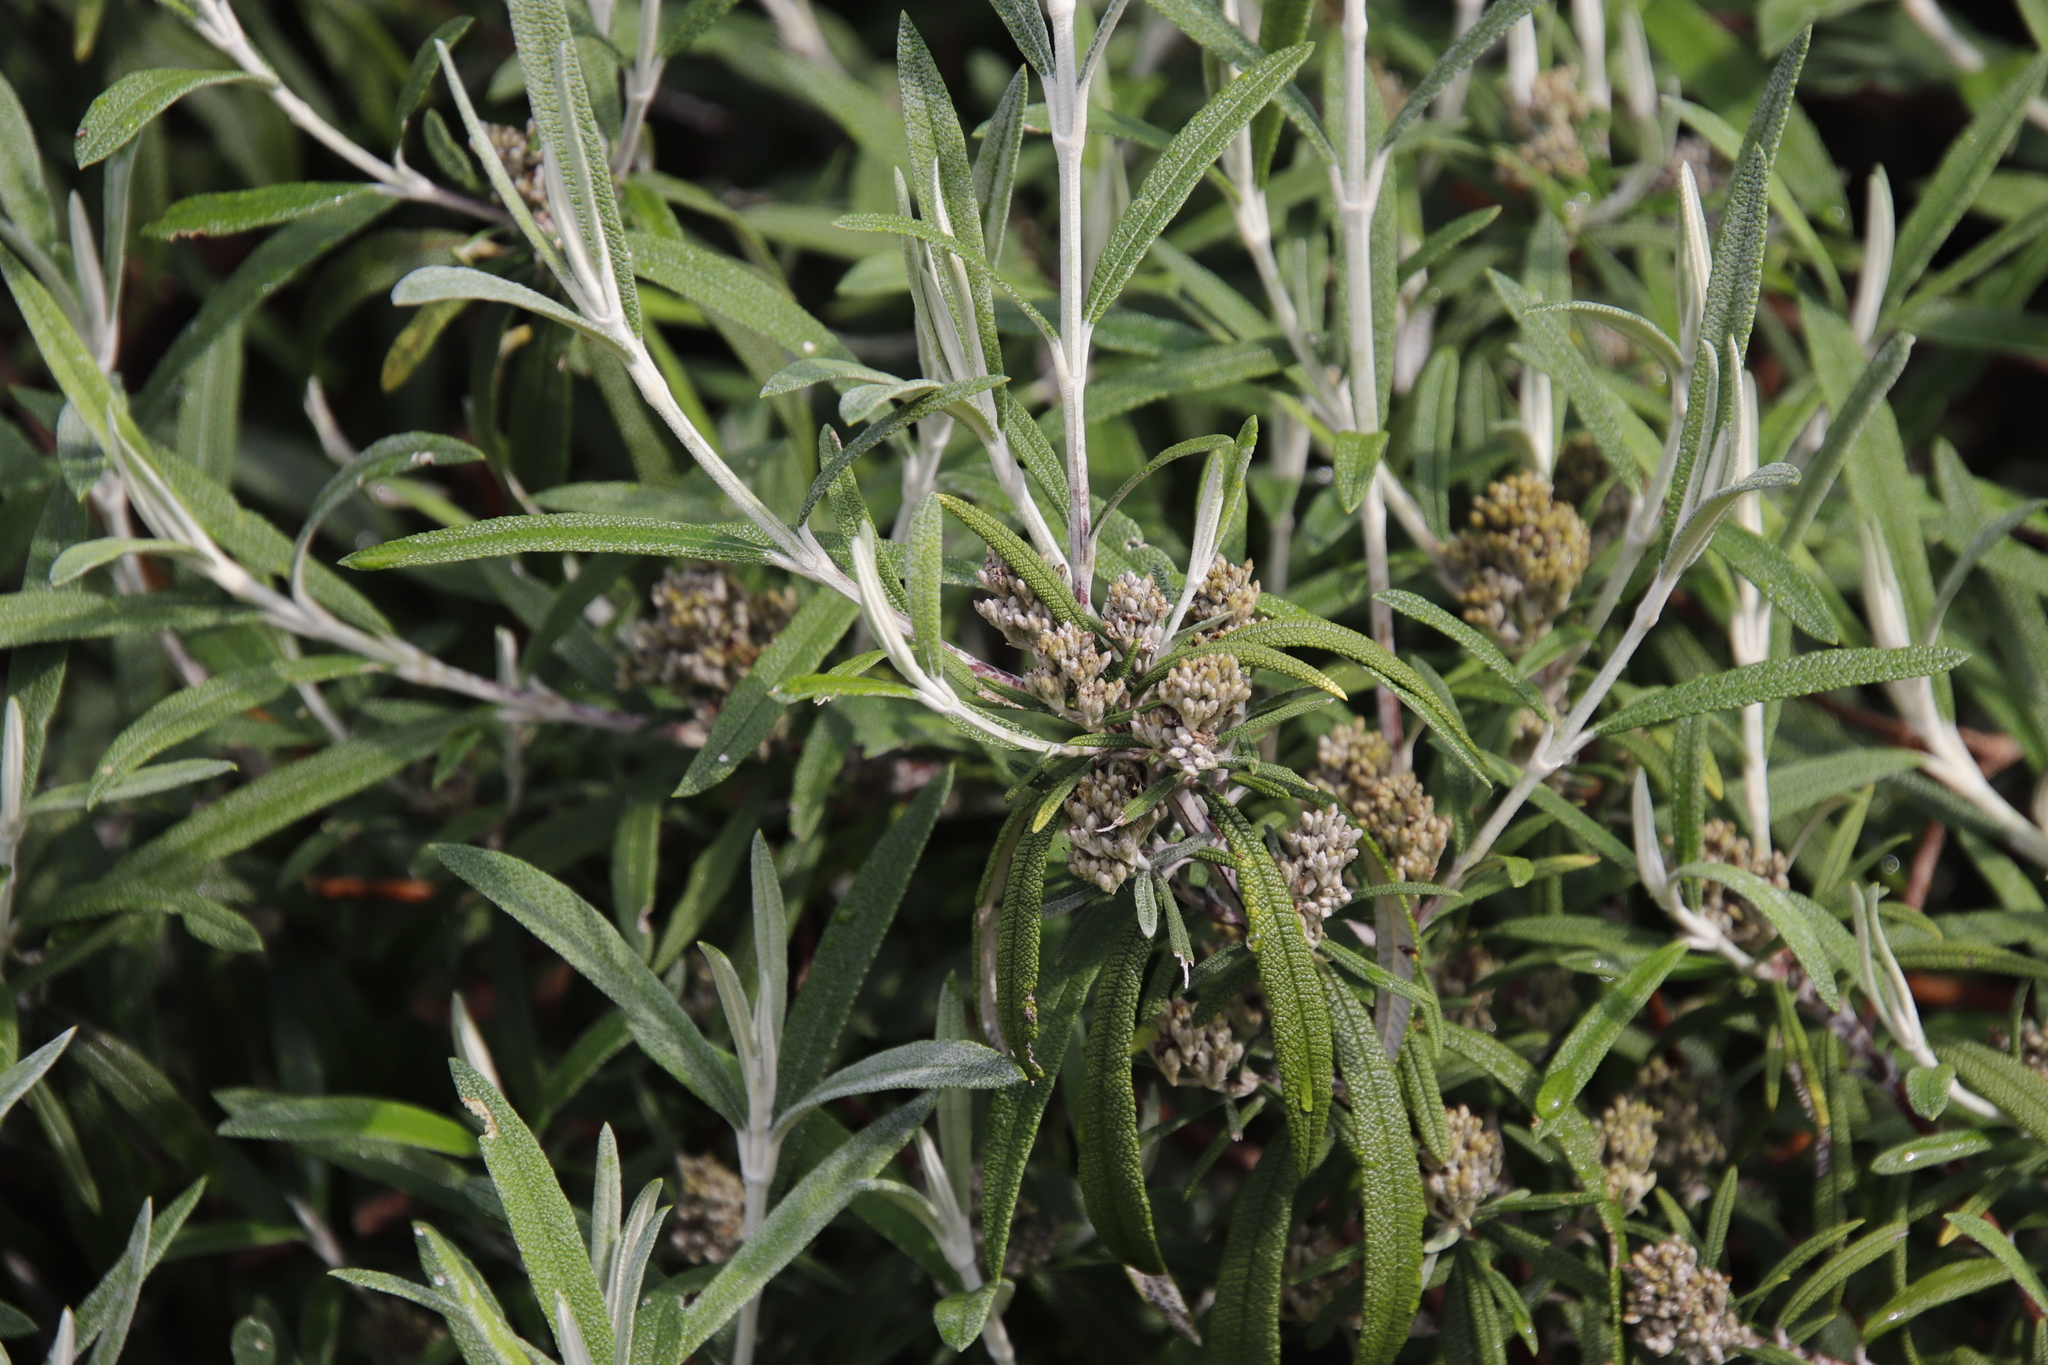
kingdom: Plantae
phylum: Tracheophyta
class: Magnoliopsida
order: Lamiales
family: Scrophulariaceae
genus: Buddleja
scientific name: Buddleja loricata
